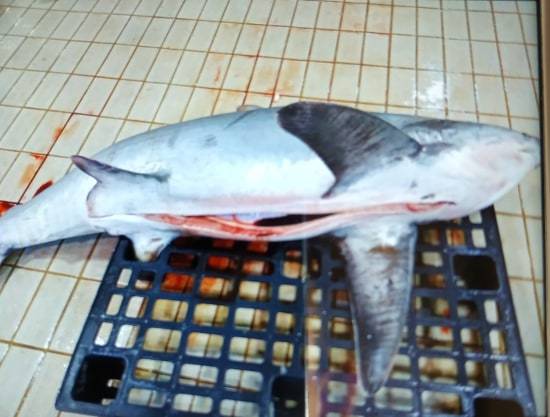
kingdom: Animalia
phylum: Chordata
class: Elasmobranchii
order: Lamniformes
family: Alopiidae
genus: Alopias
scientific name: Alopias vulpinus
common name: Thresher shark
